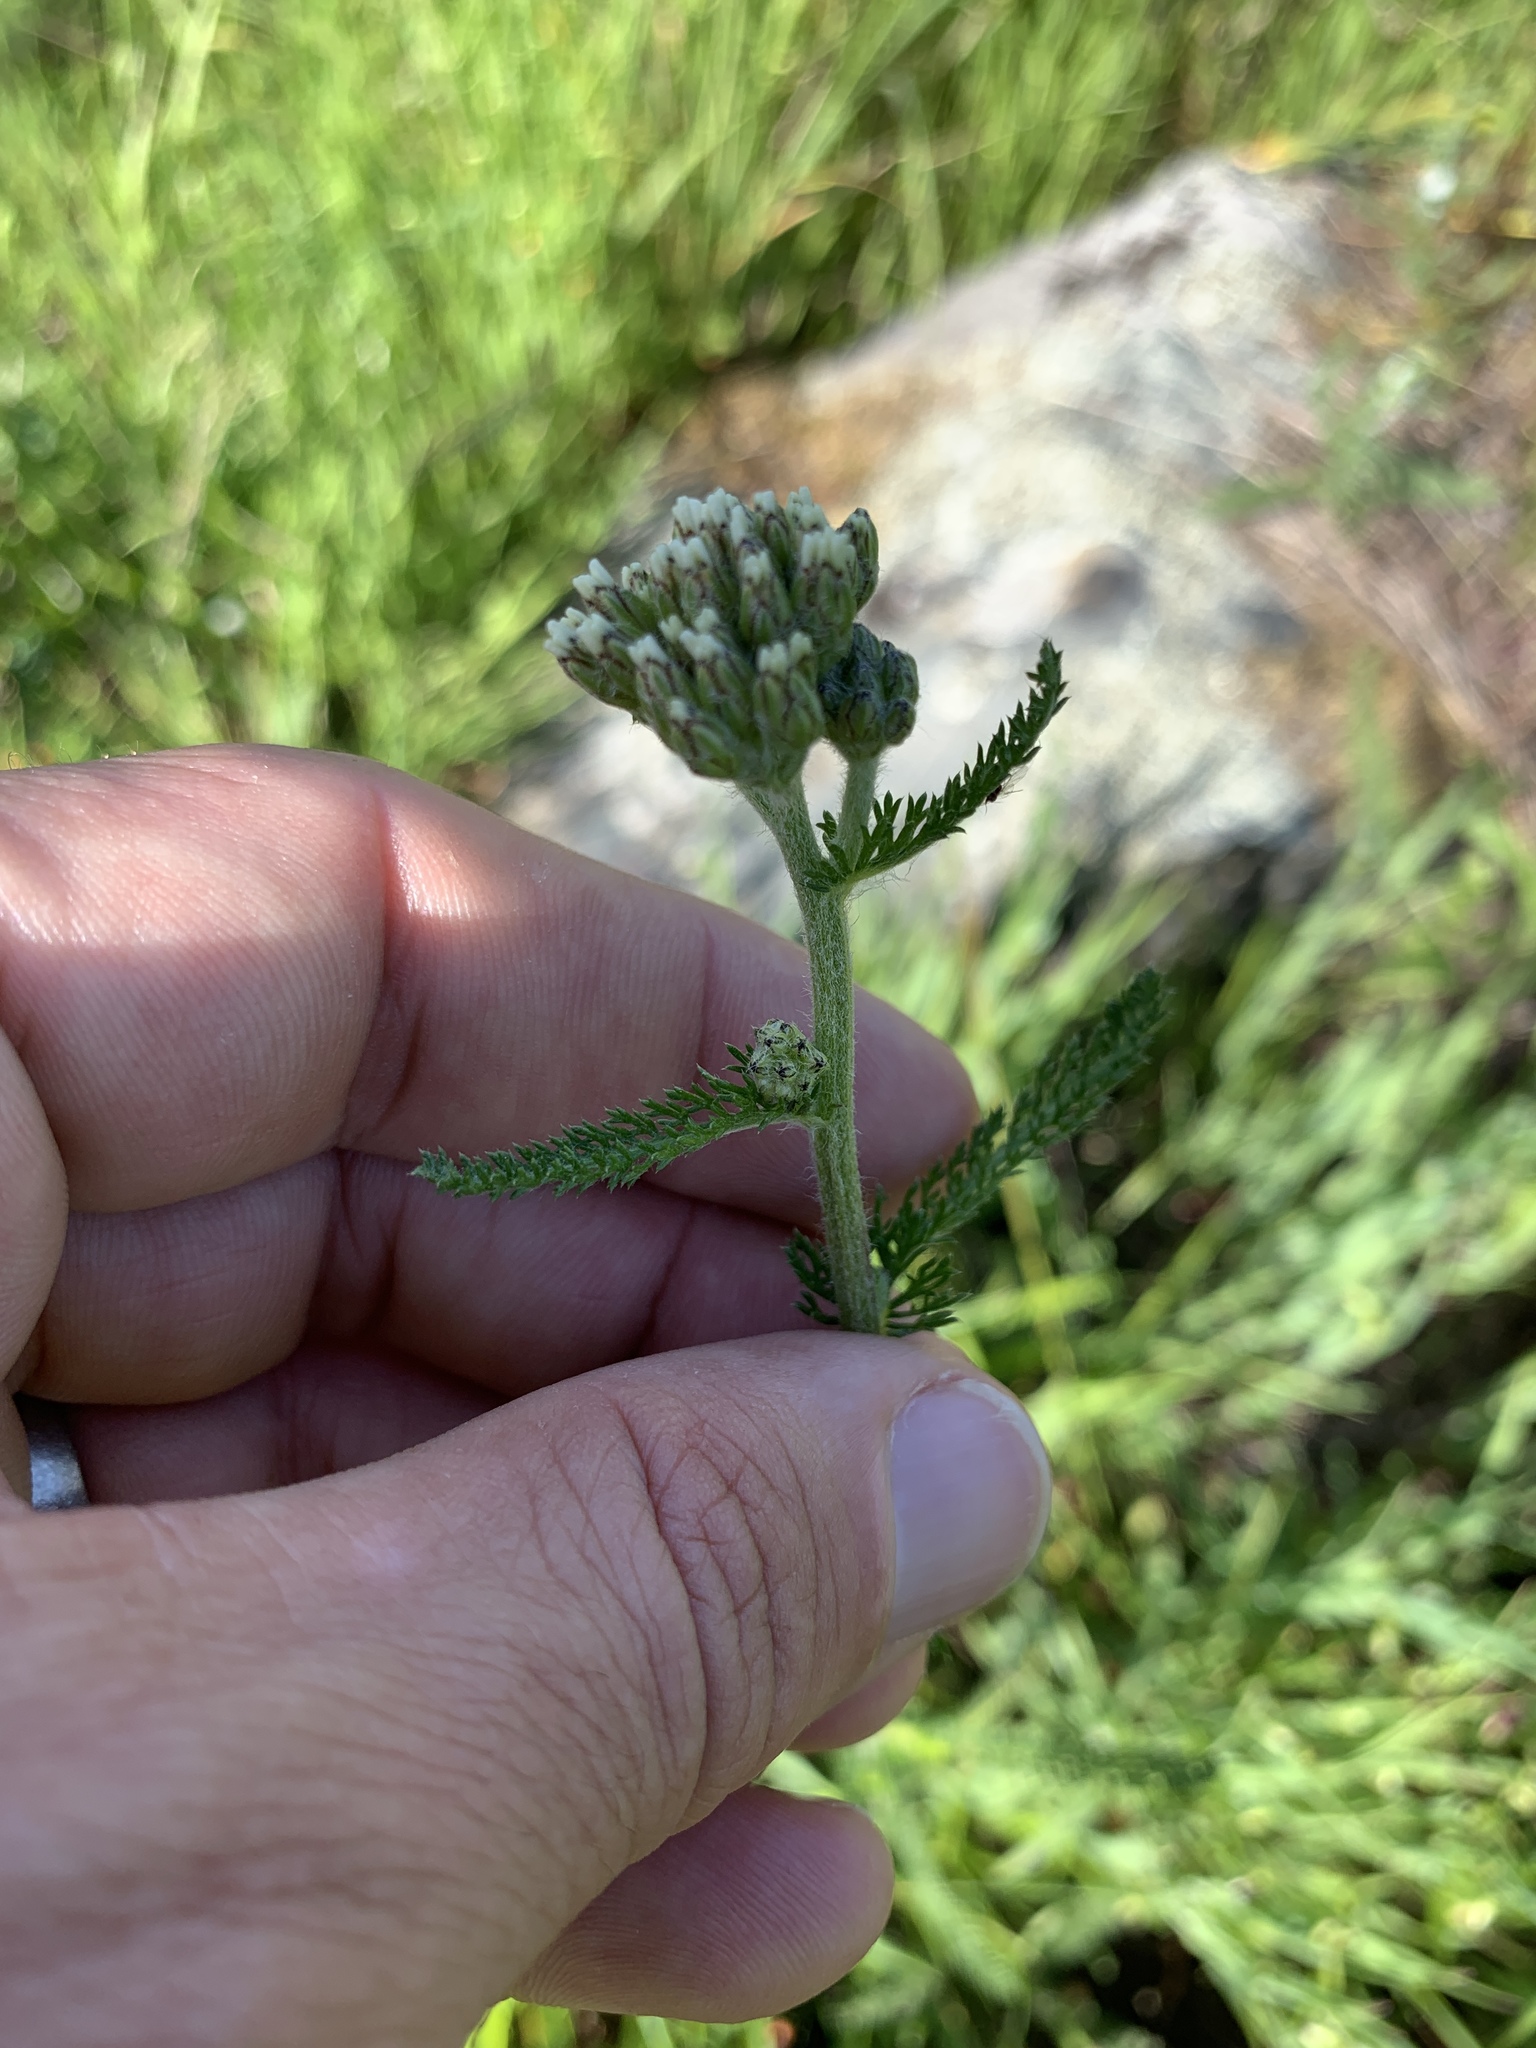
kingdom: Plantae
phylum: Tracheophyta
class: Magnoliopsida
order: Asterales
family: Asteraceae
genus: Achillea
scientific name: Achillea millefolium
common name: Yarrow
